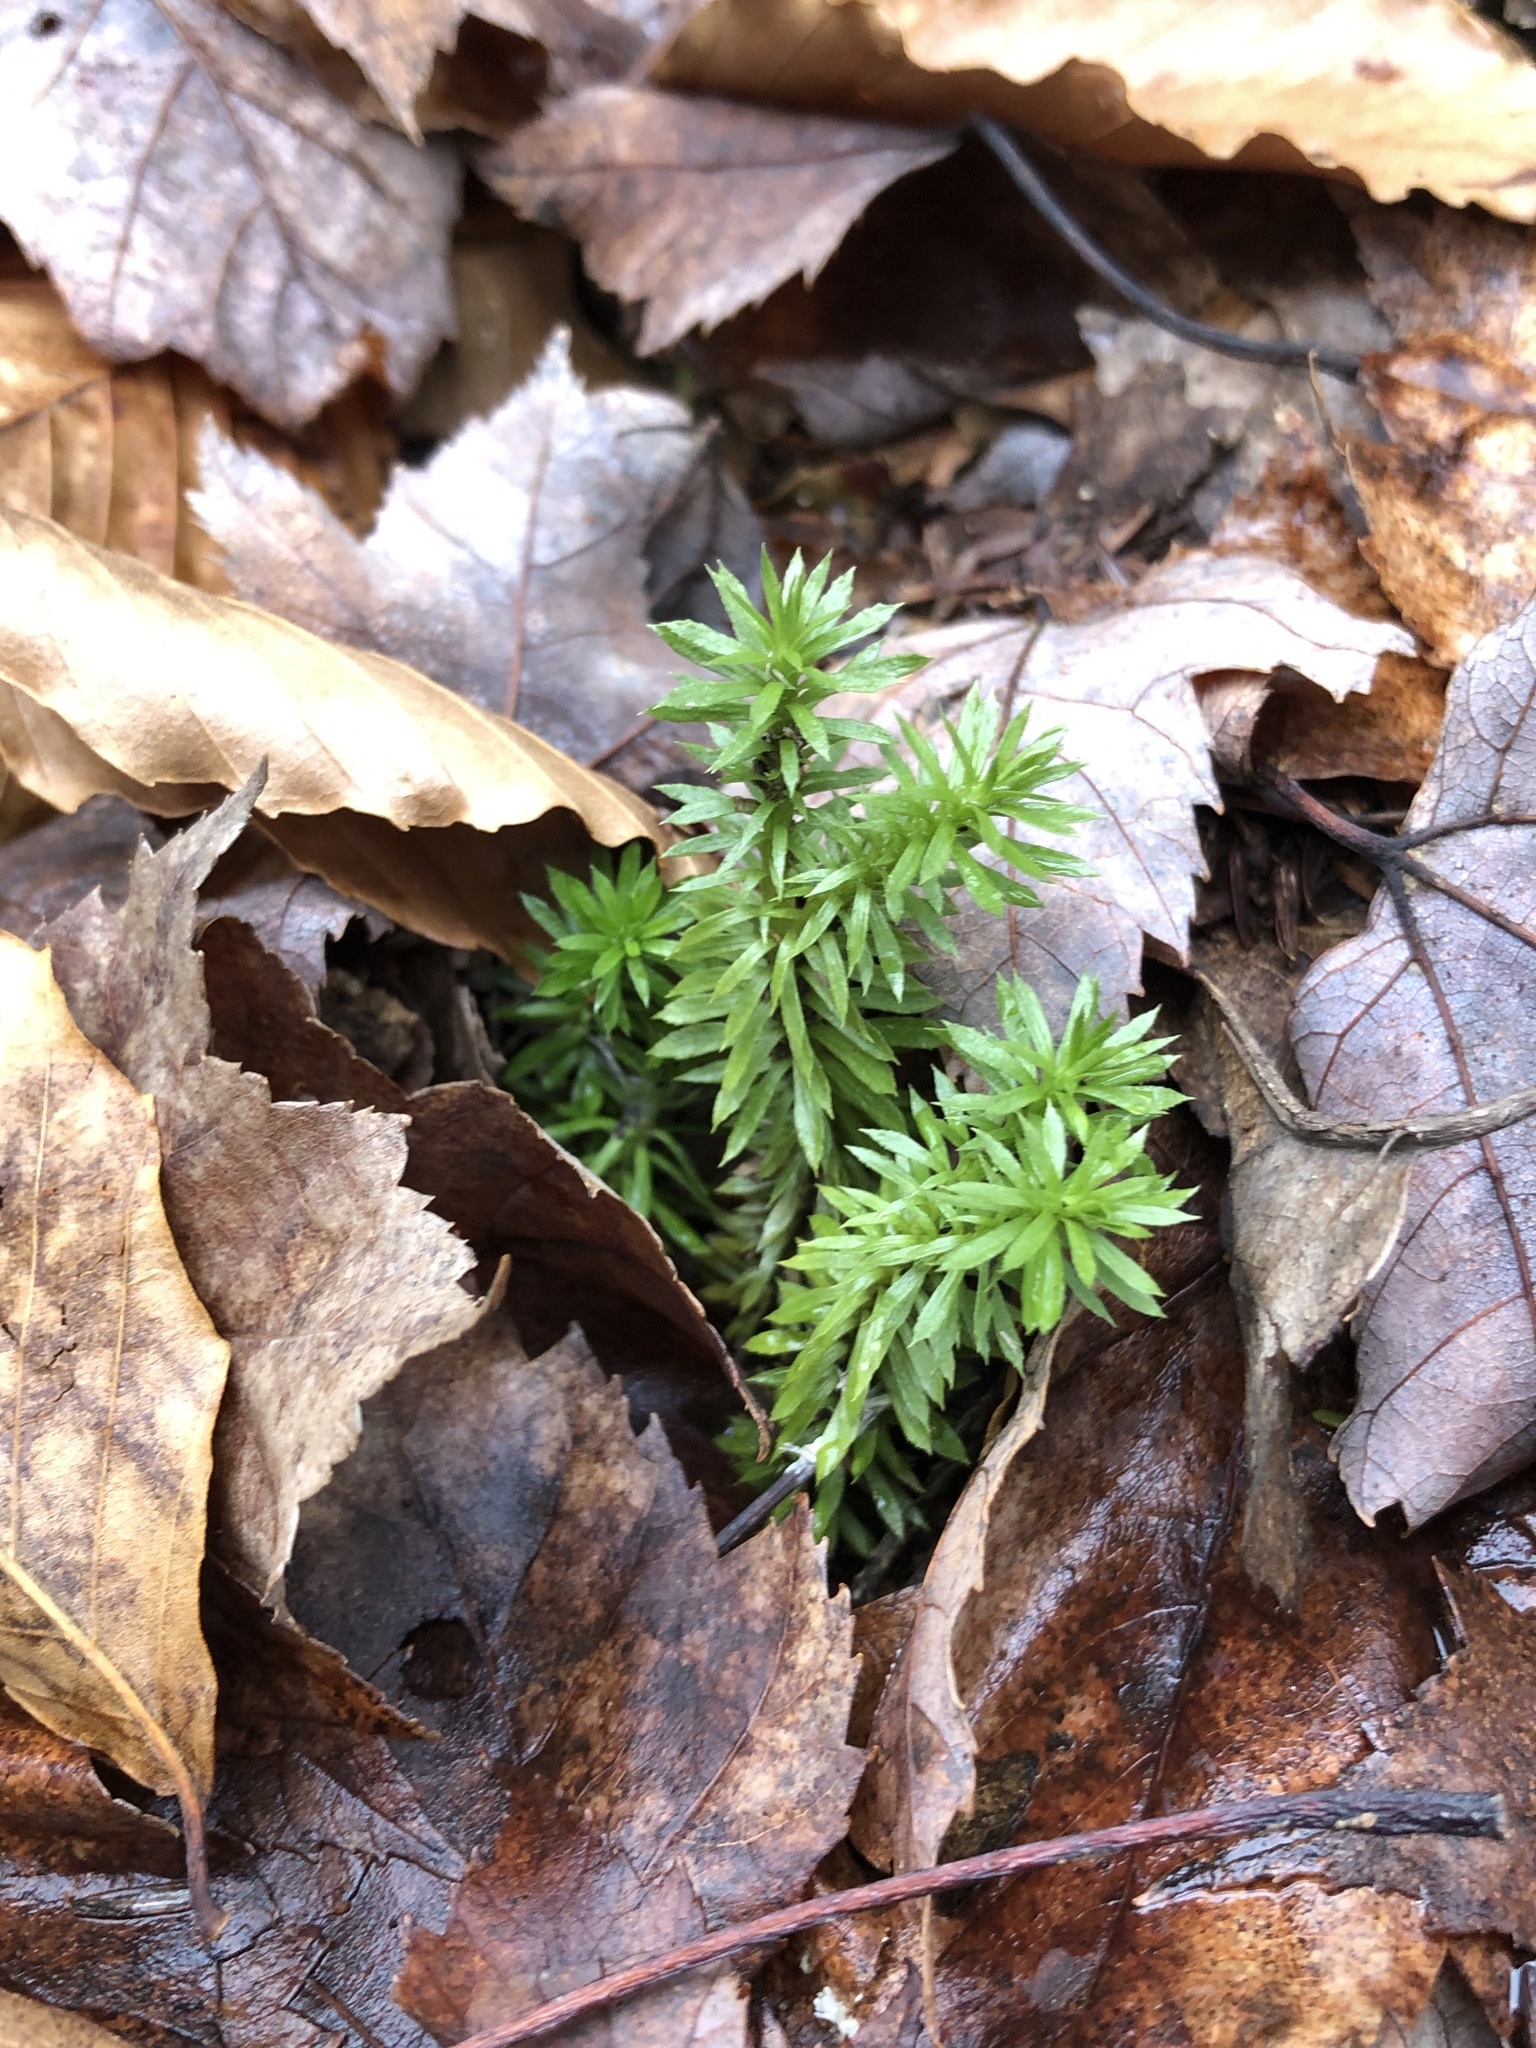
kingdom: Plantae
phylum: Tracheophyta
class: Lycopodiopsida
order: Lycopodiales
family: Lycopodiaceae
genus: Huperzia
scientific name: Huperzia lucidula
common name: Shining clubmoss
